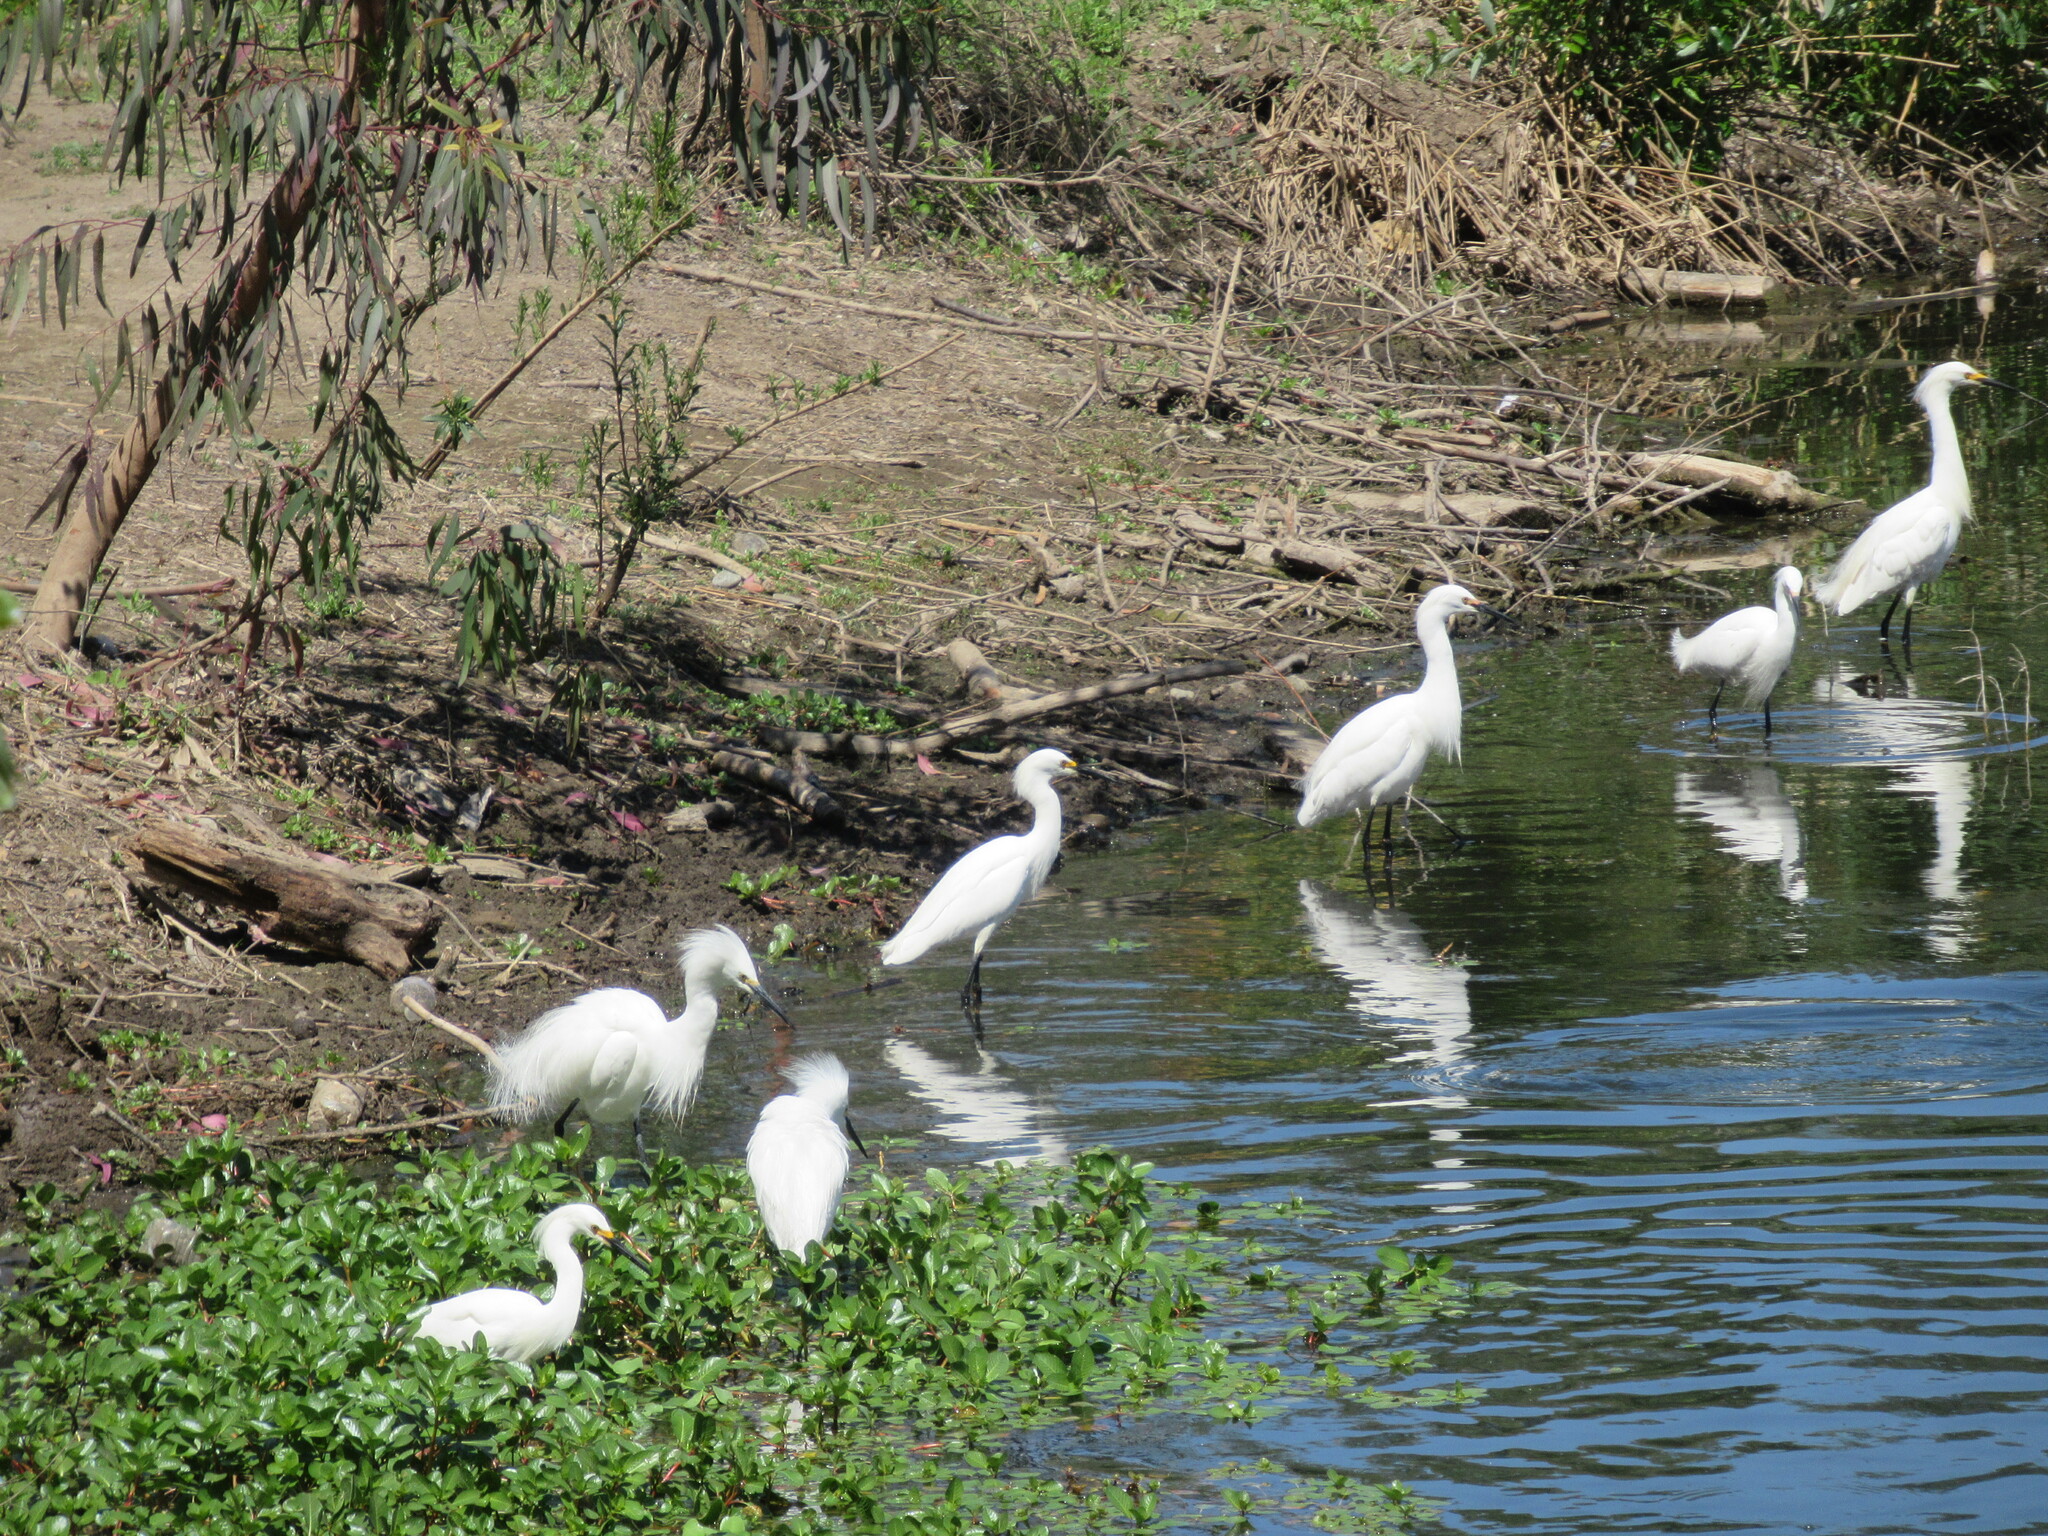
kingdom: Animalia
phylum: Chordata
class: Aves
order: Pelecaniformes
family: Ardeidae
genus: Egretta
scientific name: Egretta thula
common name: Snowy egret
